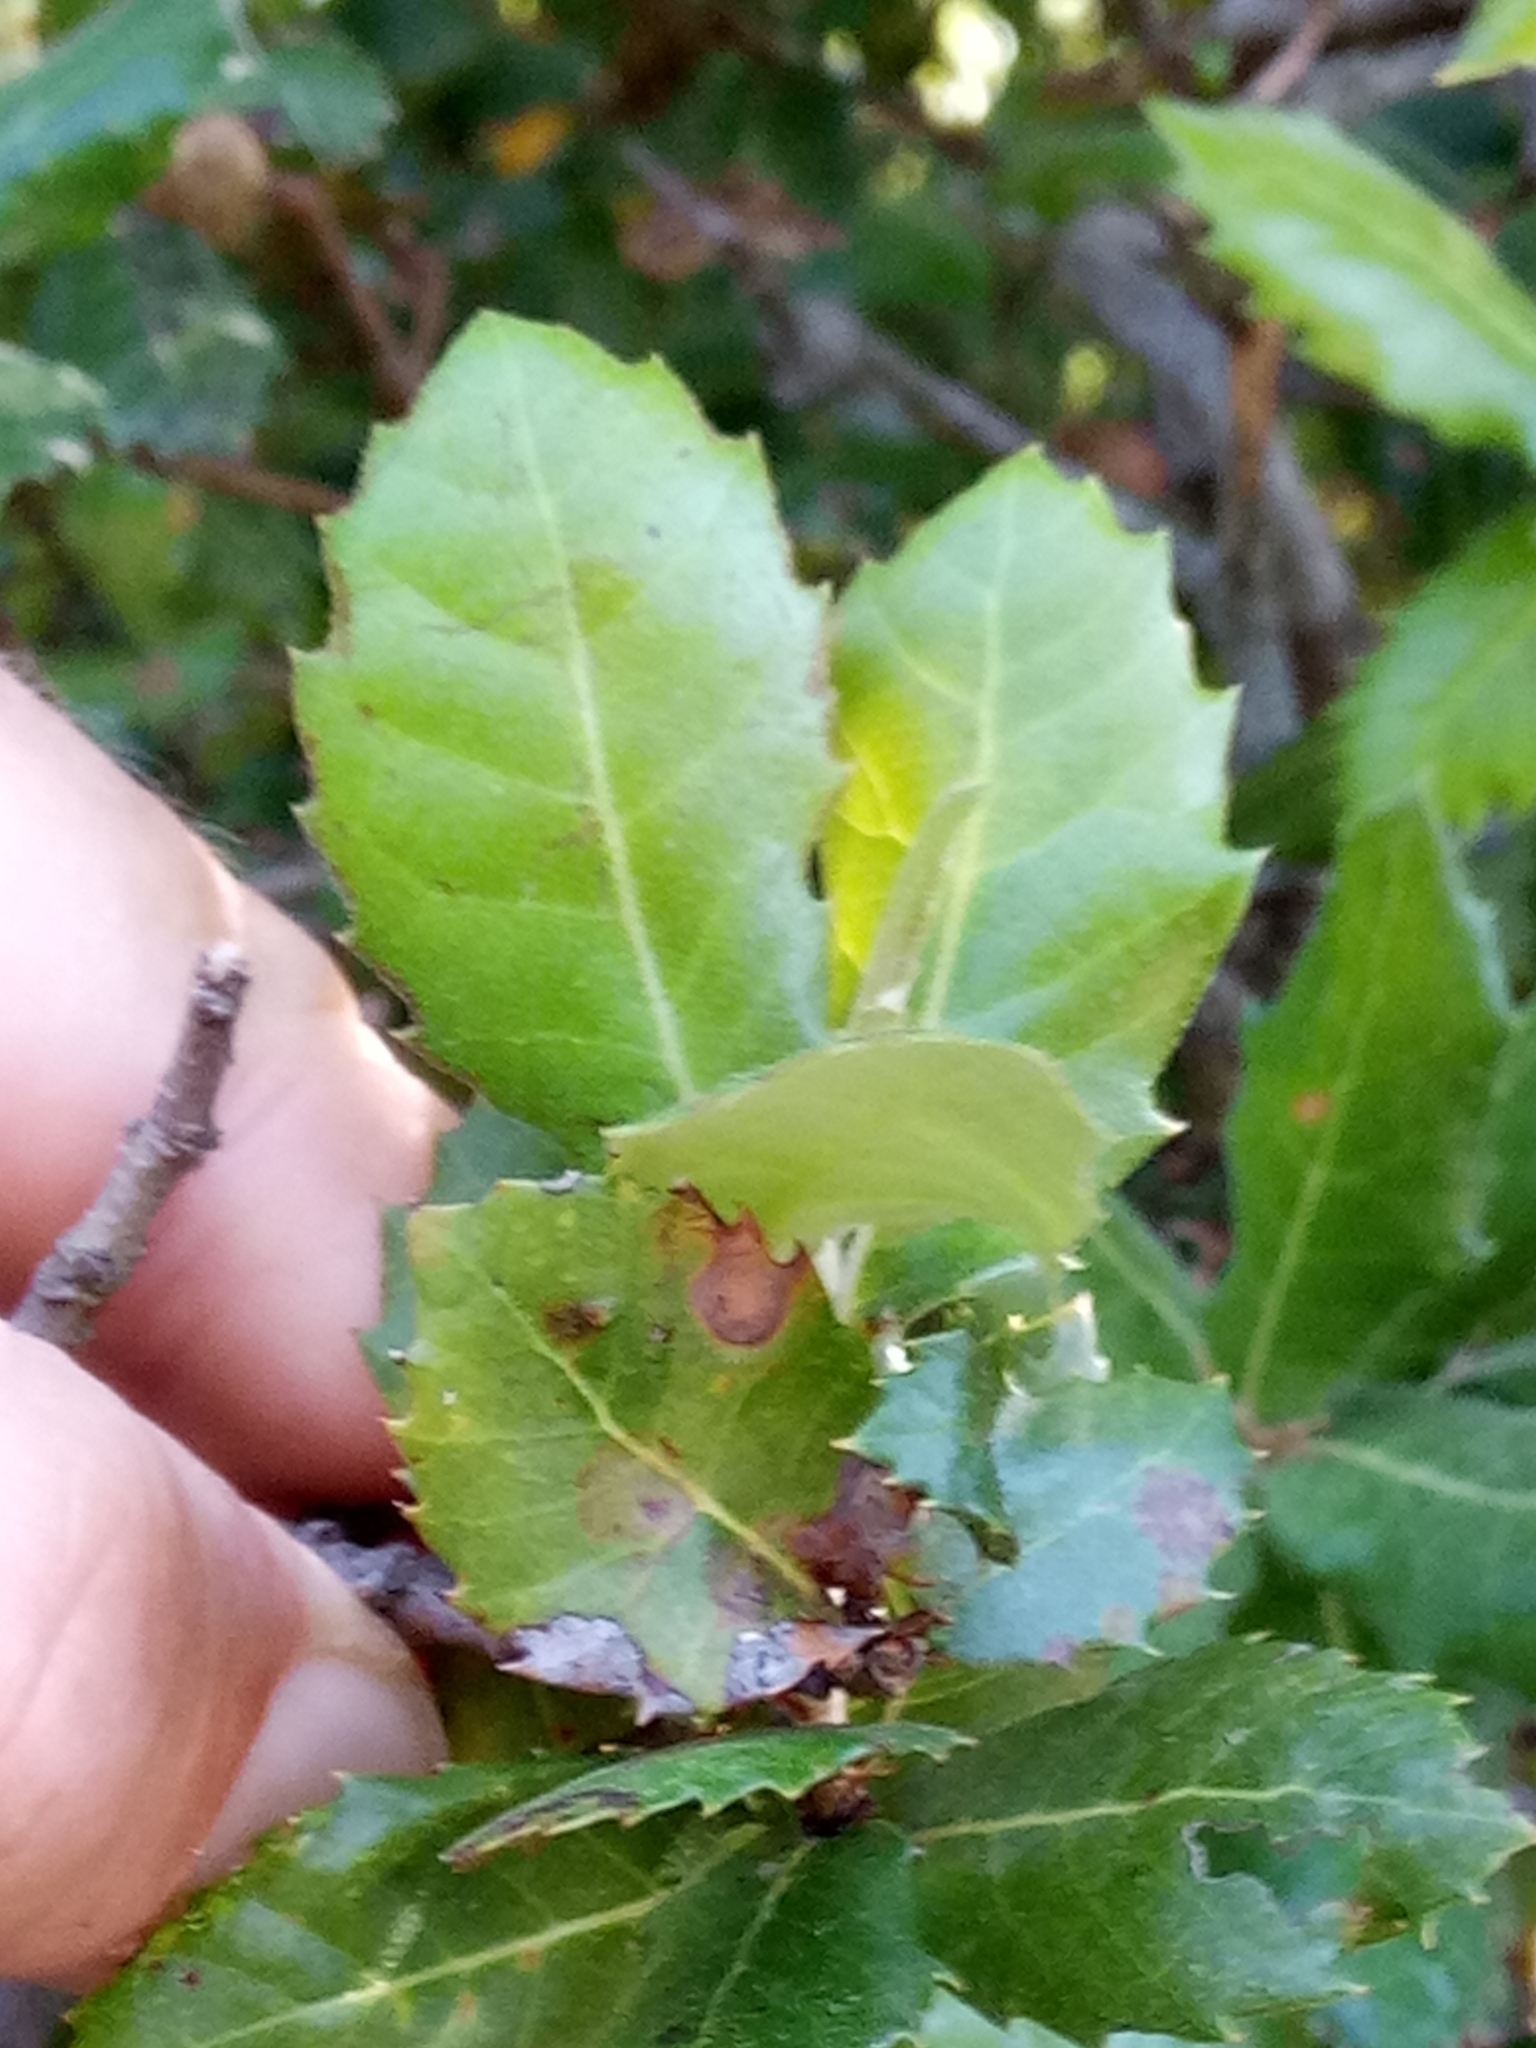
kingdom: Plantae
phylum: Tracheophyta
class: Magnoliopsida
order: Fagales
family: Fagaceae
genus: Quercus
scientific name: Quercus ilex
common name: Evergreen oak
